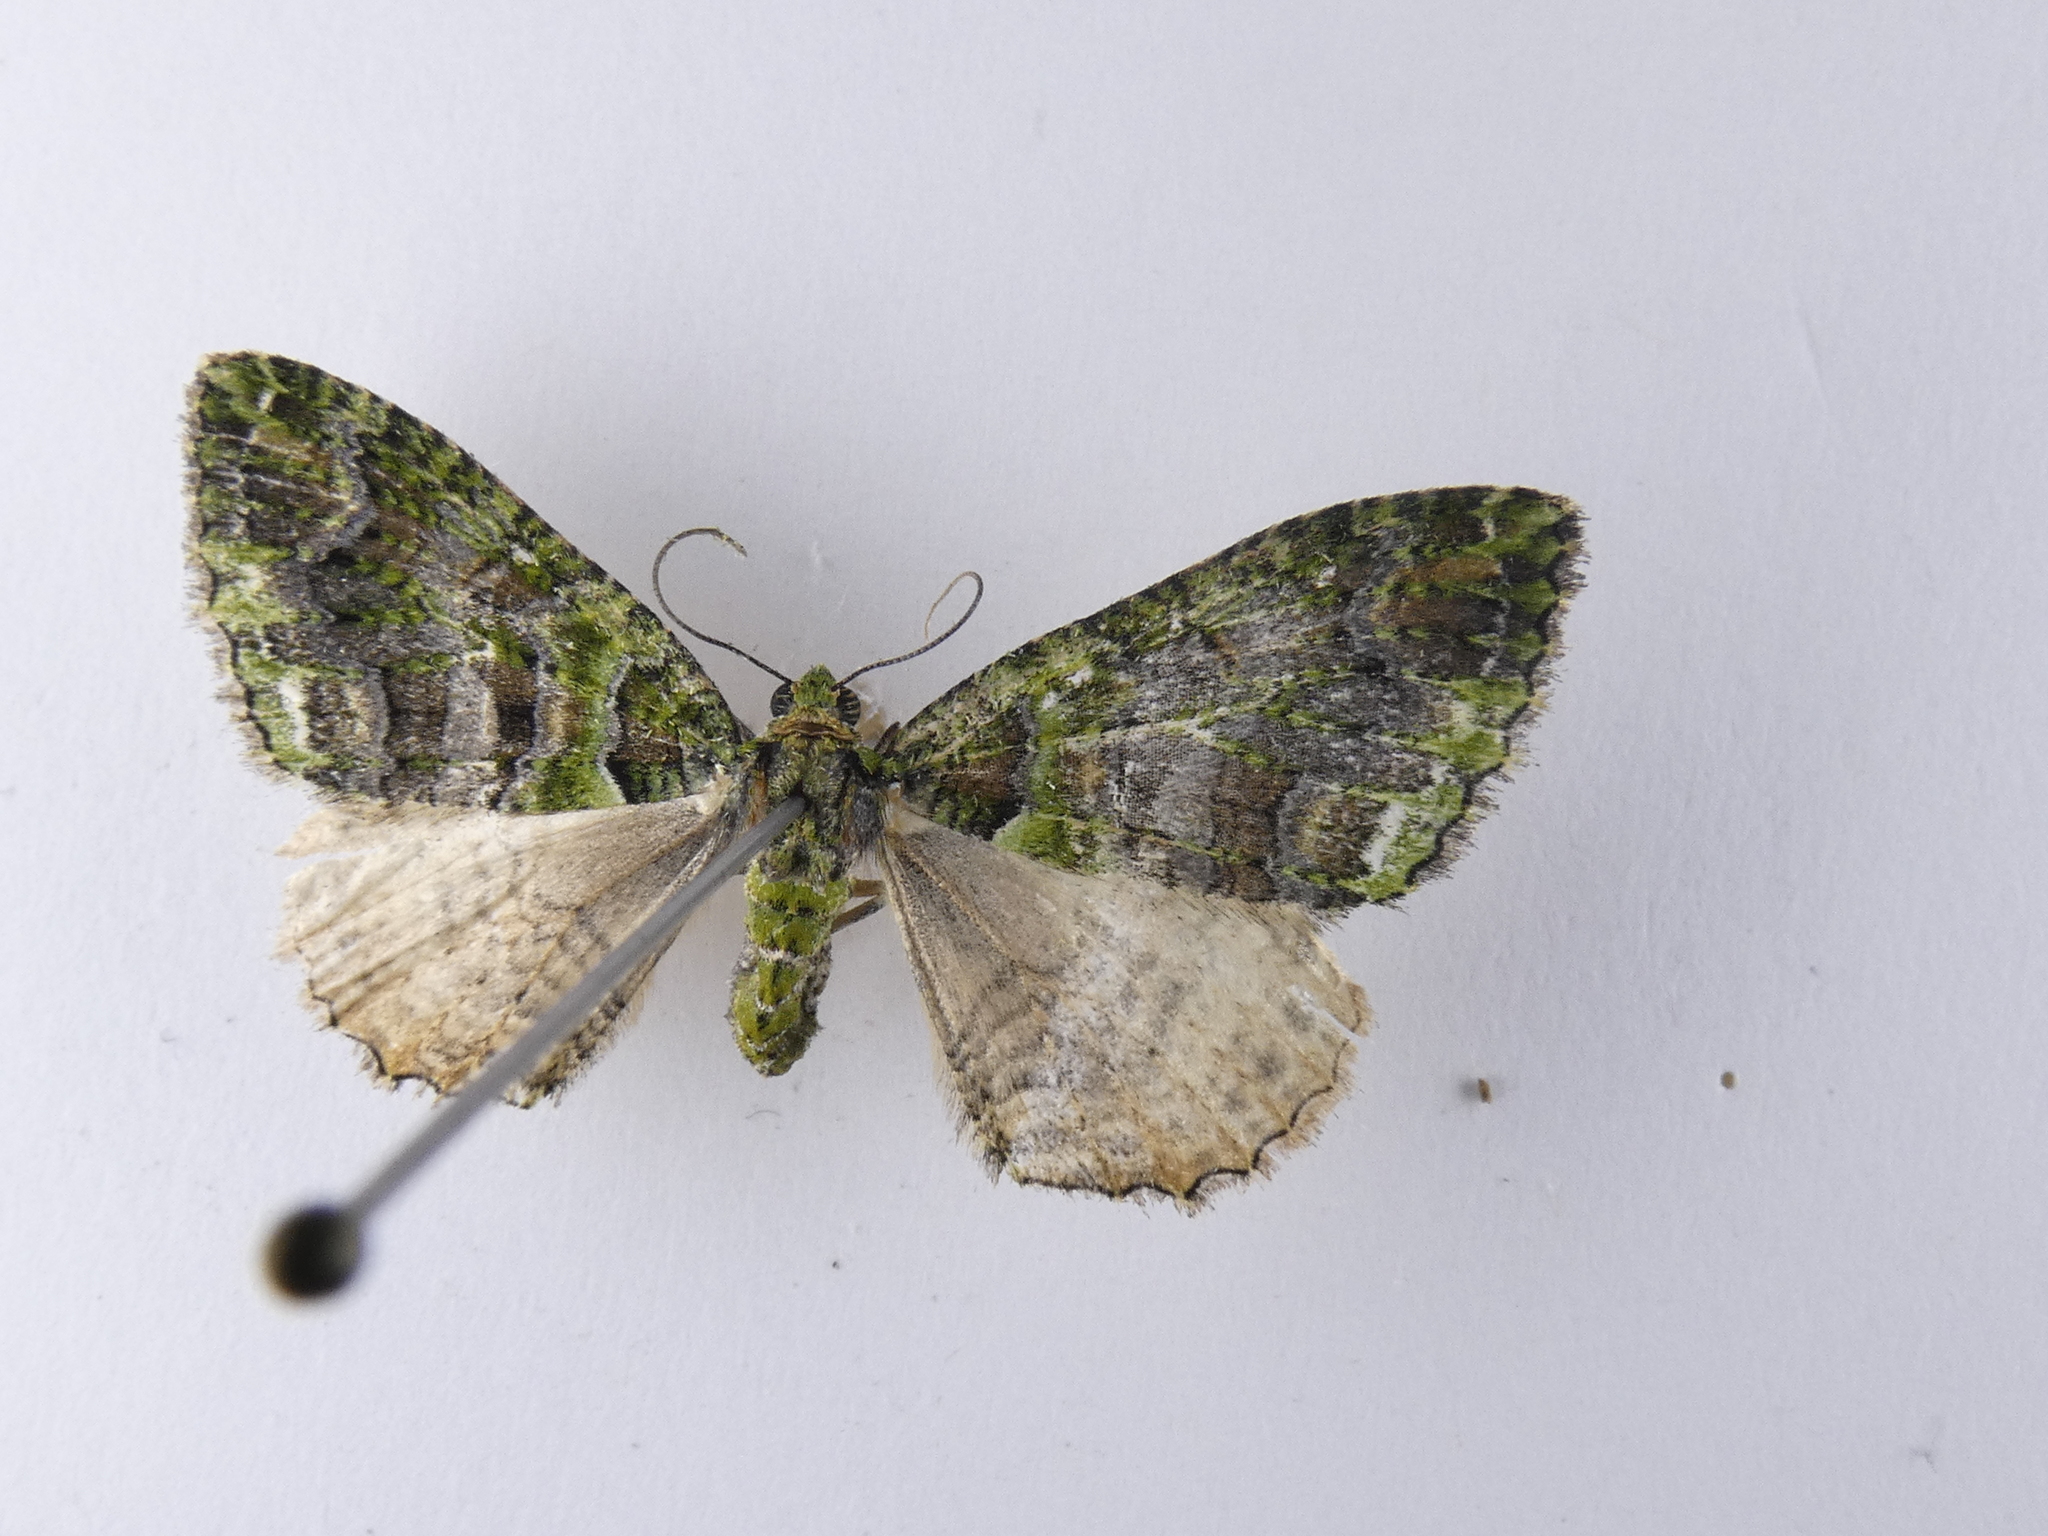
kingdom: Animalia
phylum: Arthropoda
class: Insecta
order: Lepidoptera
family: Geometridae
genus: Austrocidaria
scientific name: Austrocidaria similata
